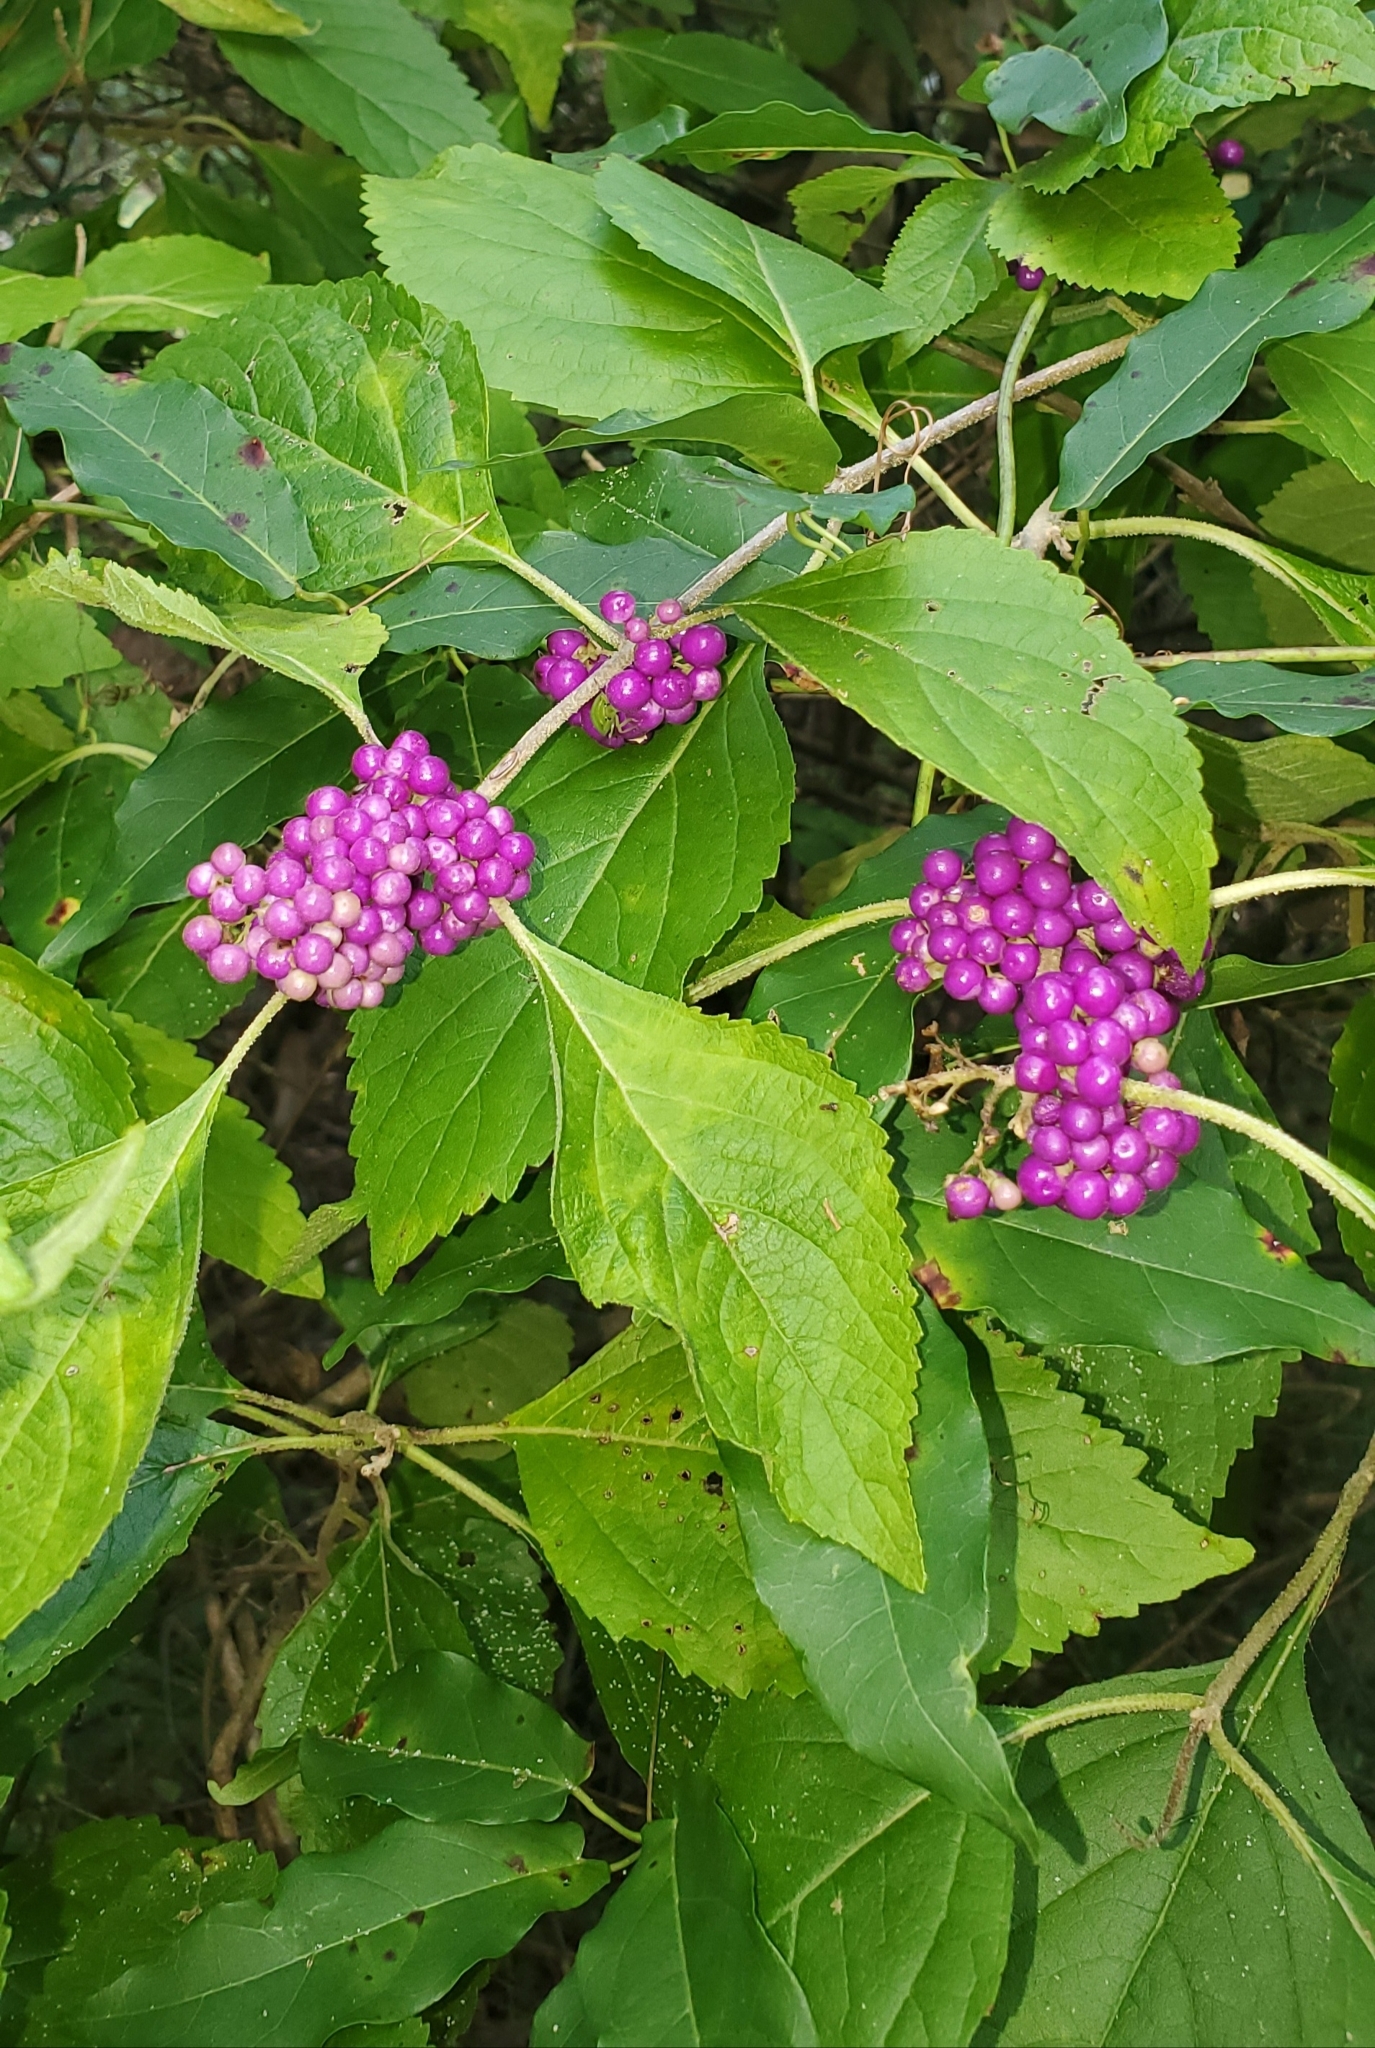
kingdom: Plantae
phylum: Tracheophyta
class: Magnoliopsida
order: Lamiales
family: Lamiaceae
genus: Callicarpa
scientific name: Callicarpa americana
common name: American beautyberry
